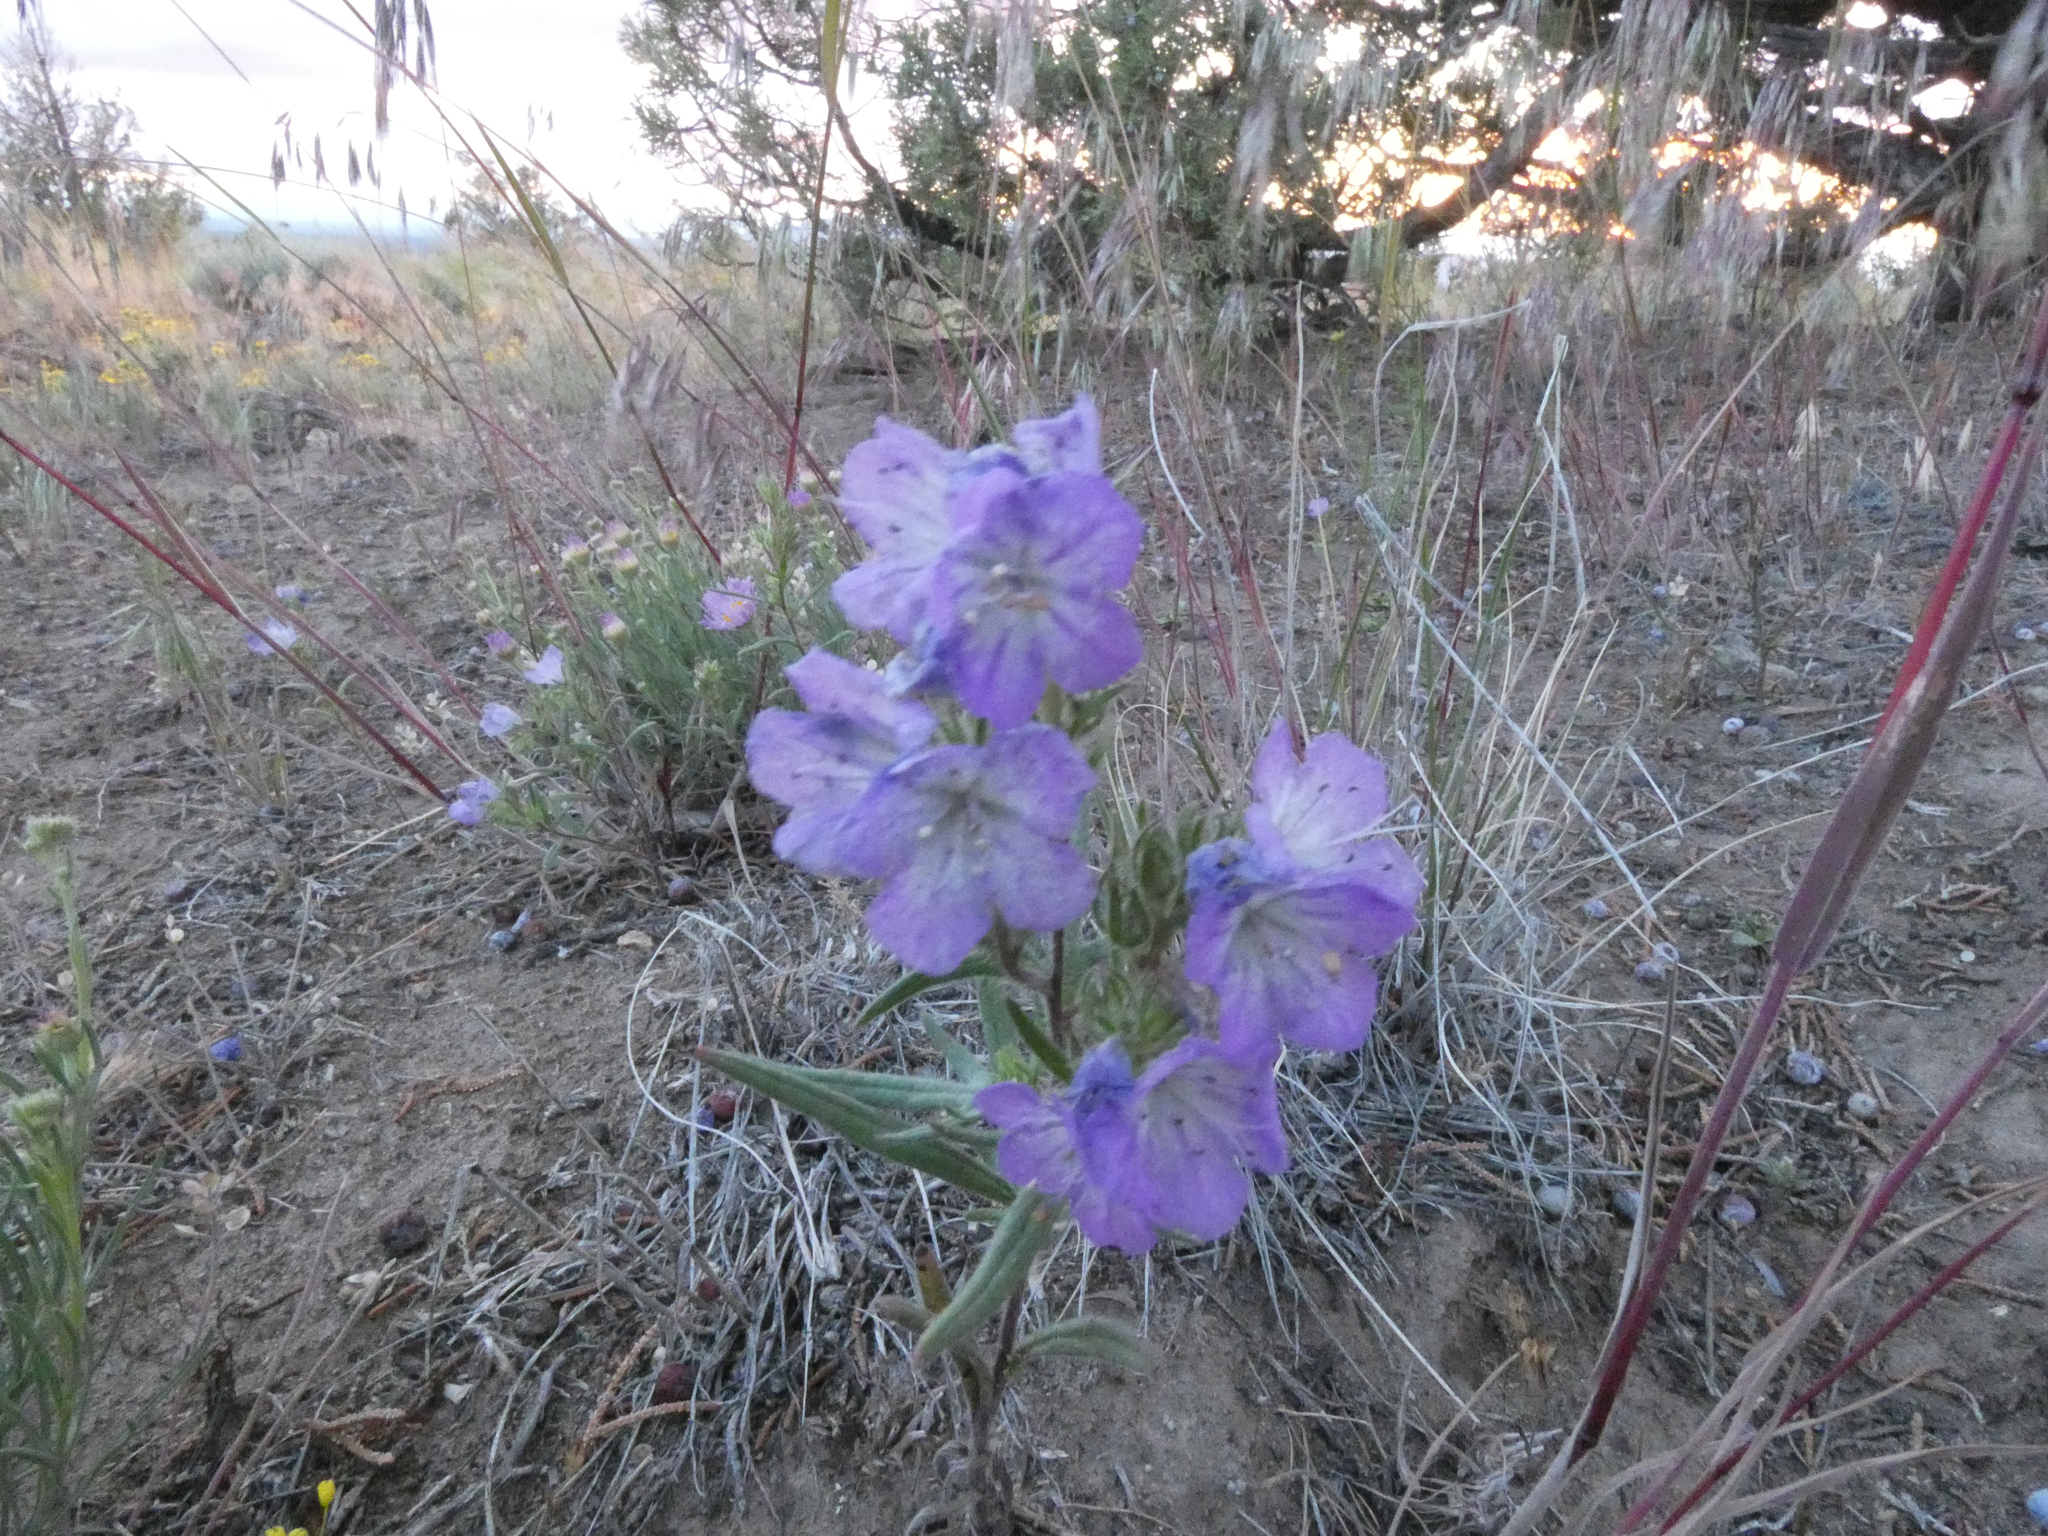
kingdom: Plantae
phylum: Tracheophyta
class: Magnoliopsida
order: Boraginales
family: Hydrophyllaceae
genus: Phacelia
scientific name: Phacelia linearis
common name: Linear-leaved phacelia
